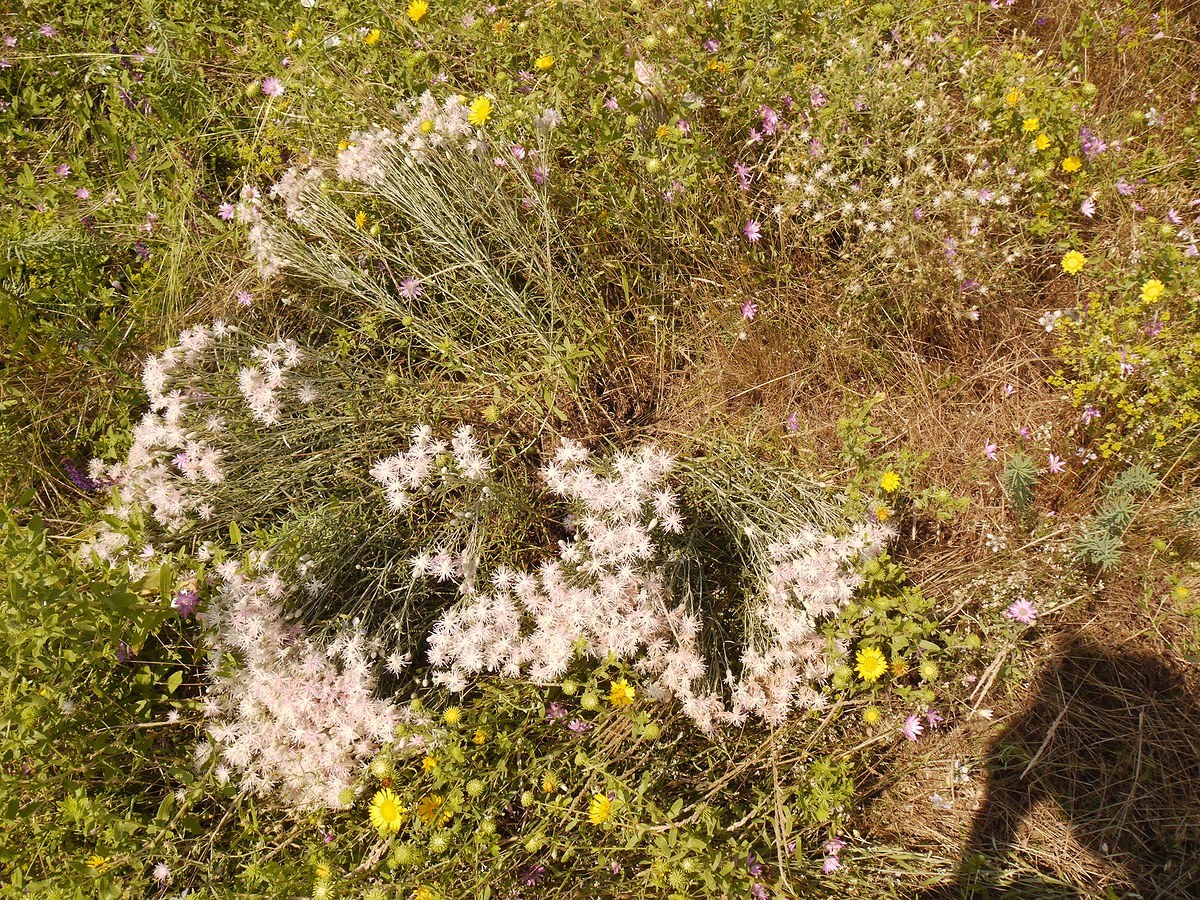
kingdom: Plantae
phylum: Tracheophyta
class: Magnoliopsida
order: Asterales
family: Asteraceae
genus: Jurinea
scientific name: Jurinea stoechadifolia
